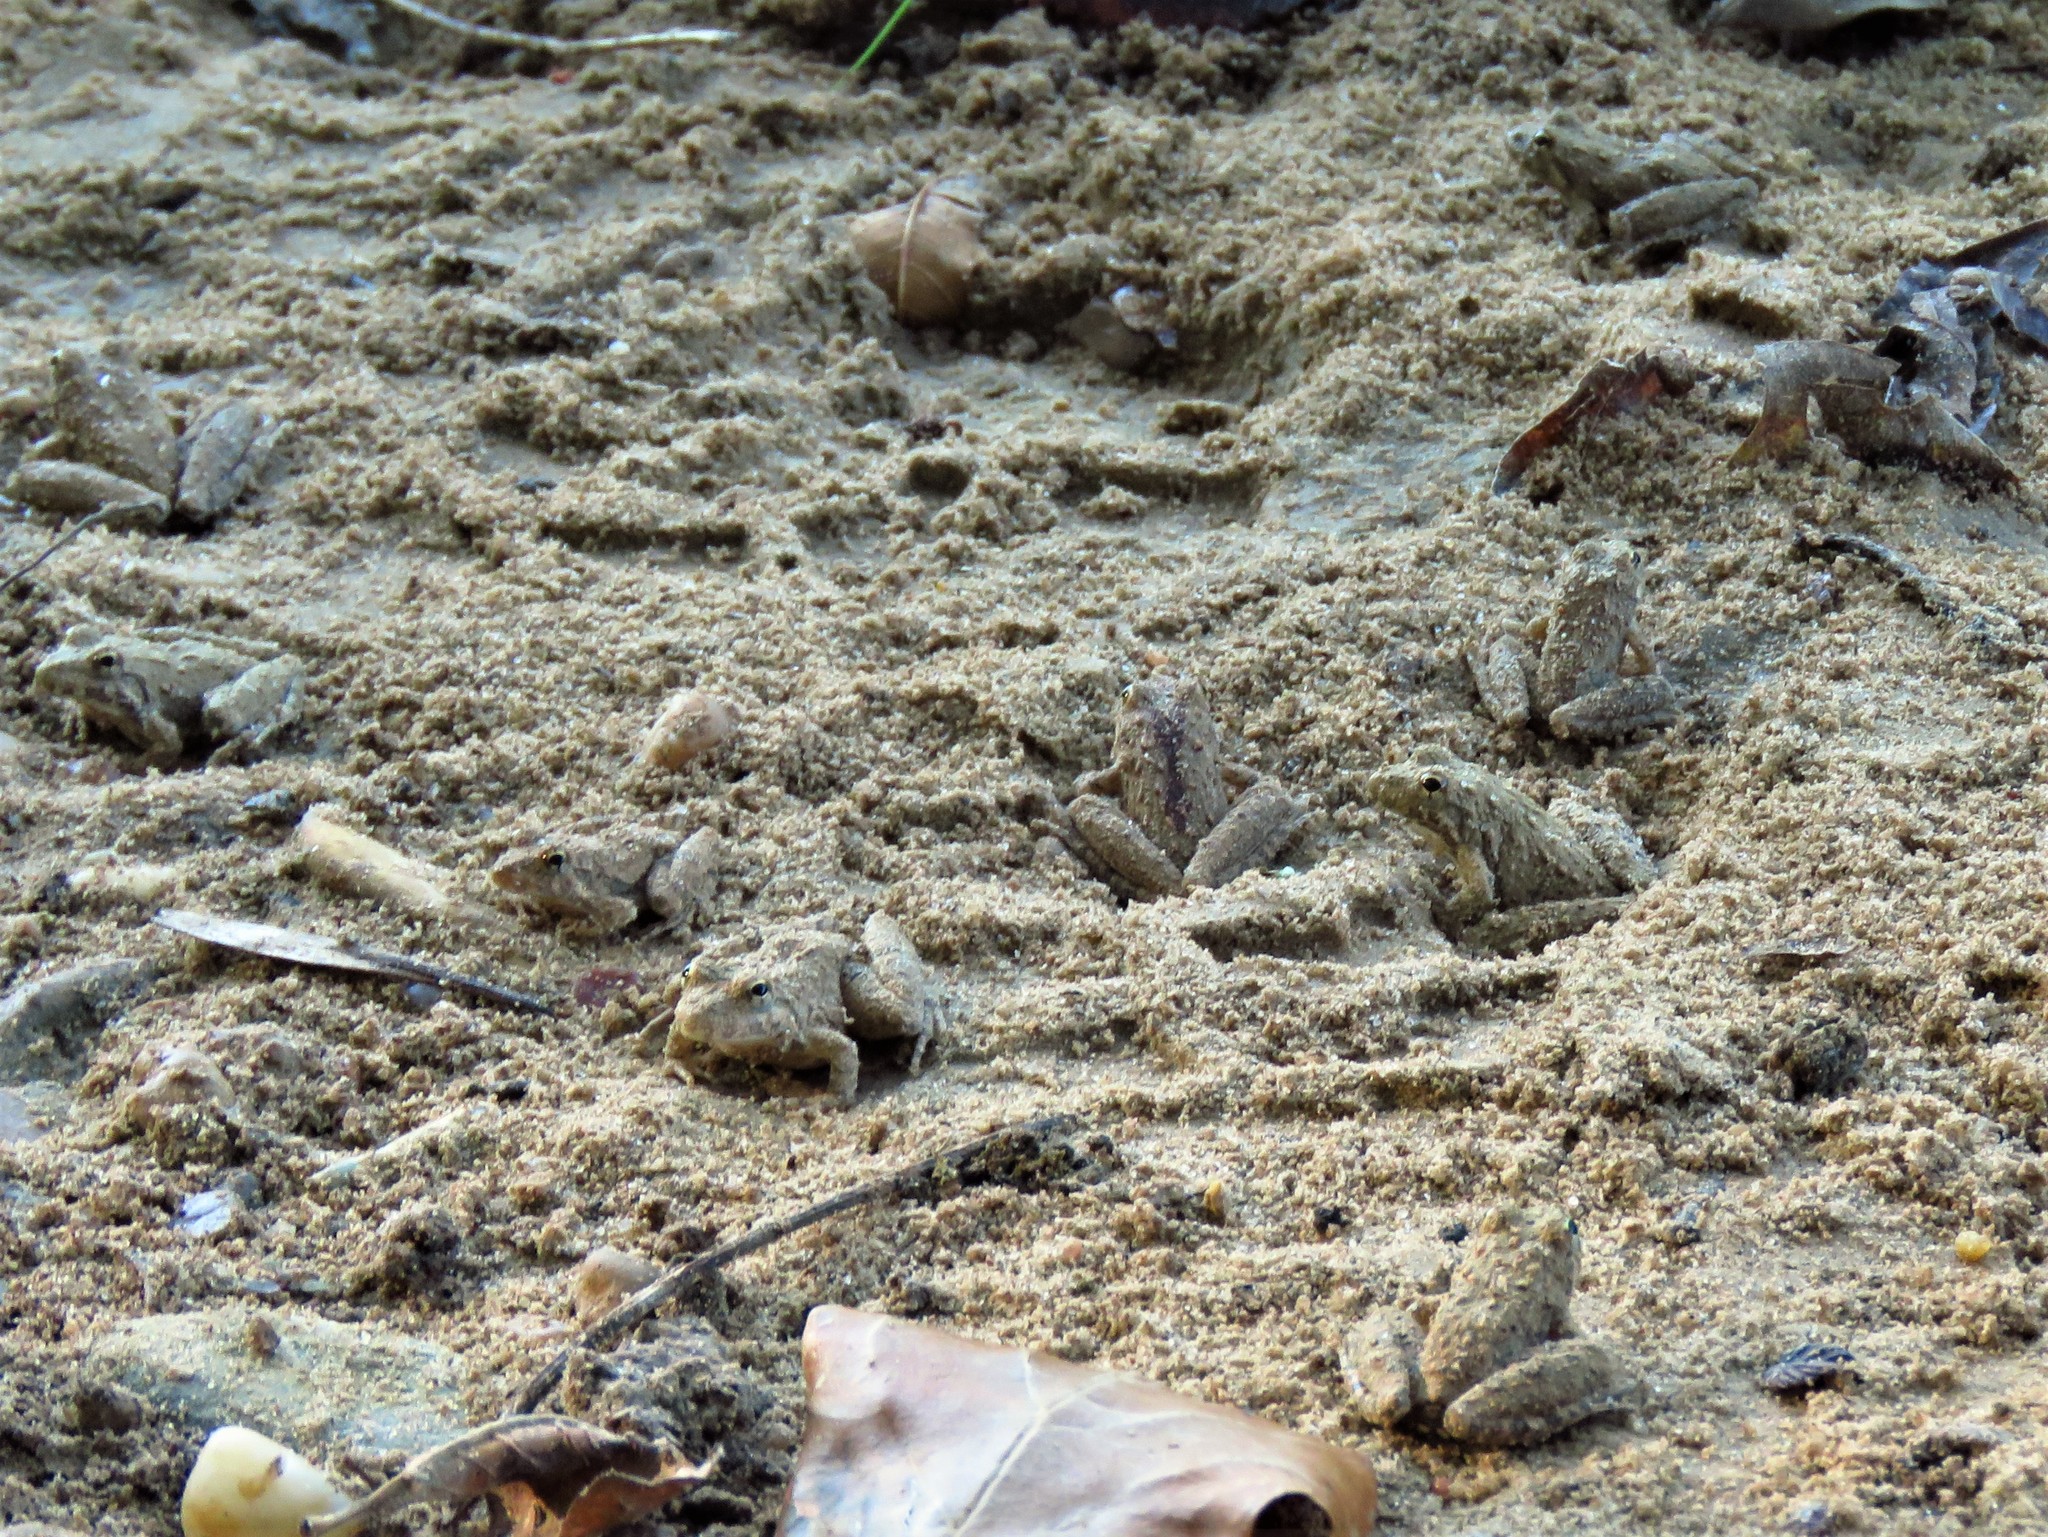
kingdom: Animalia
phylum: Chordata
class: Amphibia
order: Anura
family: Hylidae
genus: Acris
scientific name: Acris blanchardi
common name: Blanchard's cricket frog
